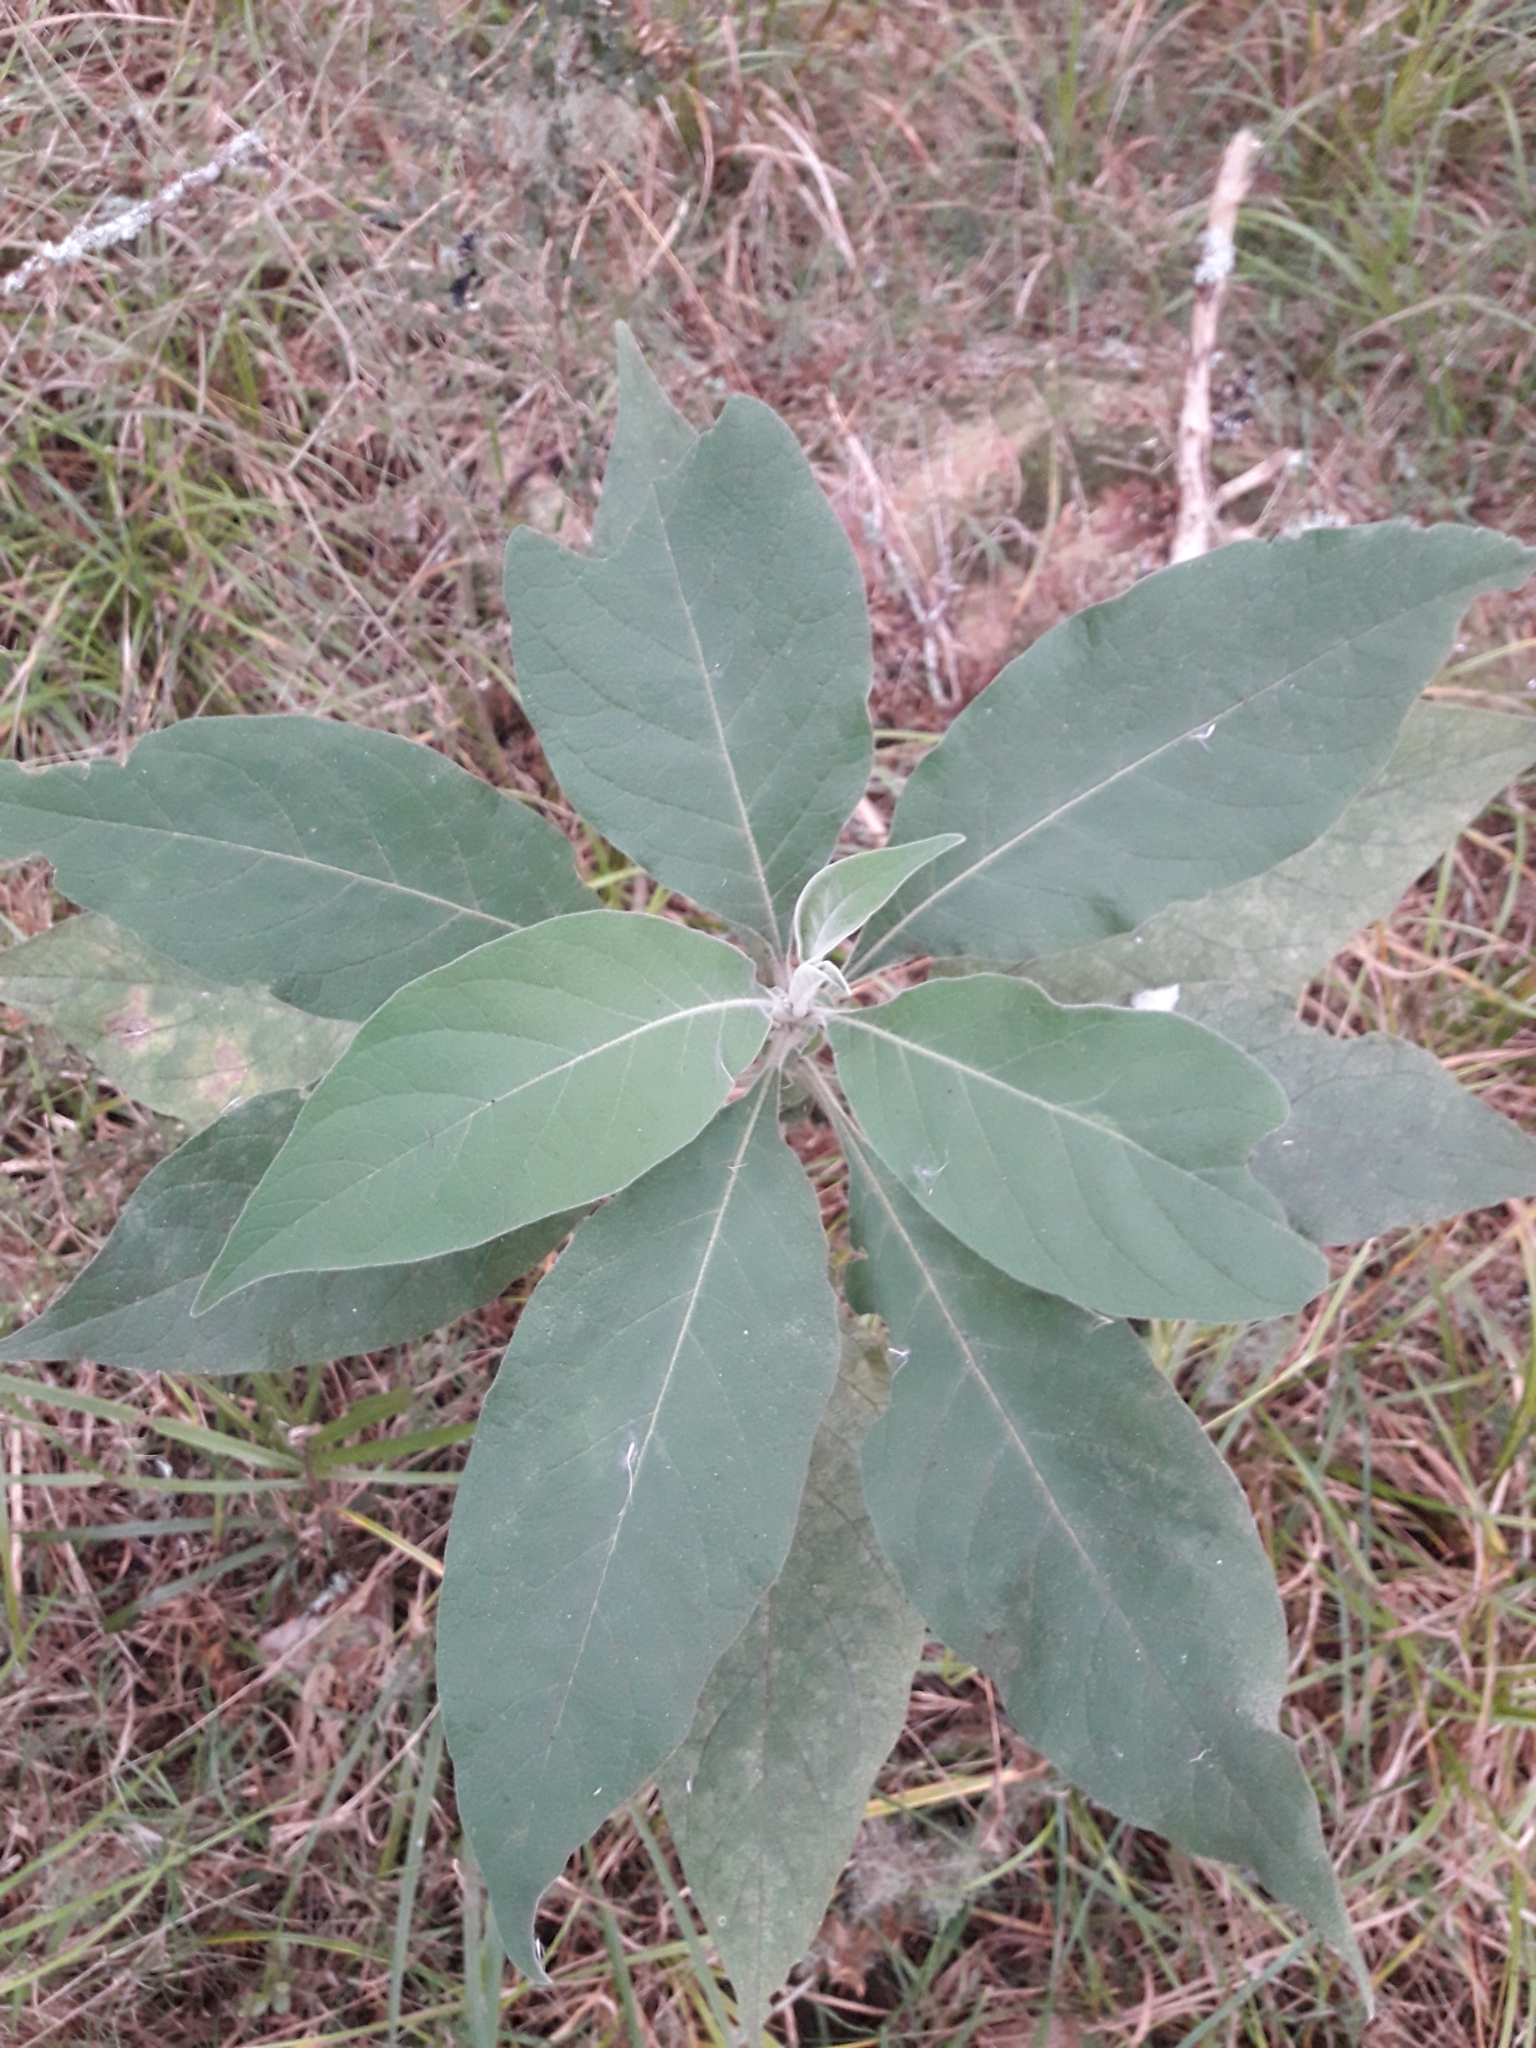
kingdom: Plantae
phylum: Tracheophyta
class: Magnoliopsida
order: Solanales
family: Solanaceae
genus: Solanum
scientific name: Solanum mauritianum
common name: Earleaf nightshade
